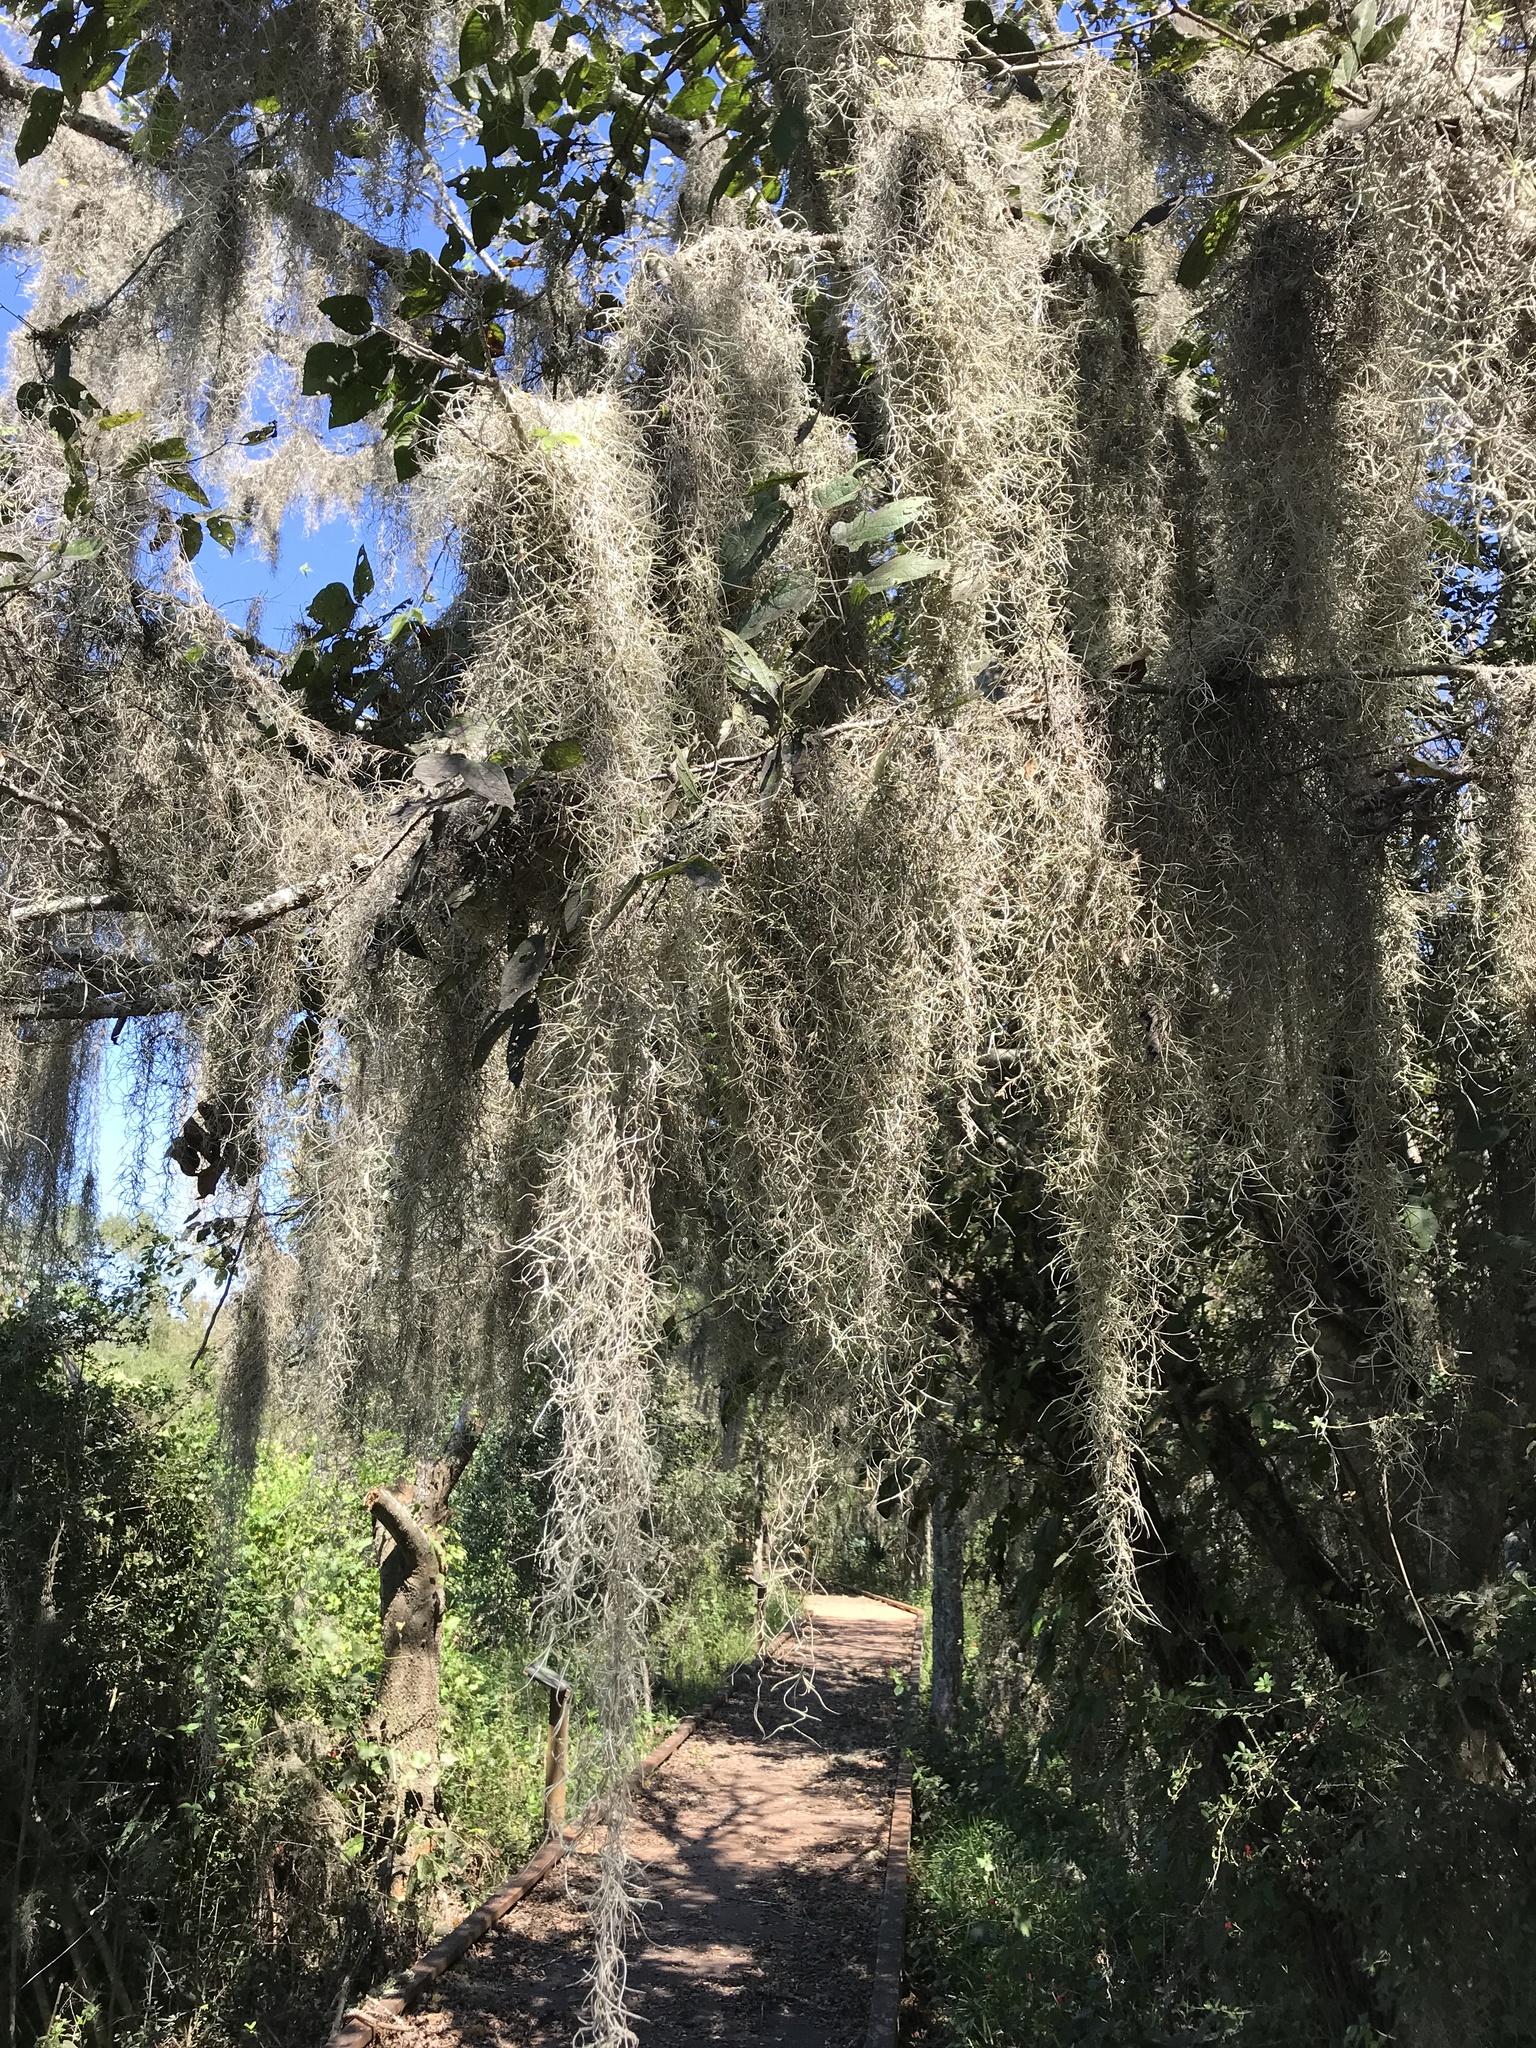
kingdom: Plantae
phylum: Tracheophyta
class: Liliopsida
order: Poales
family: Bromeliaceae
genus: Tillandsia
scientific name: Tillandsia usneoides
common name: Spanish moss
